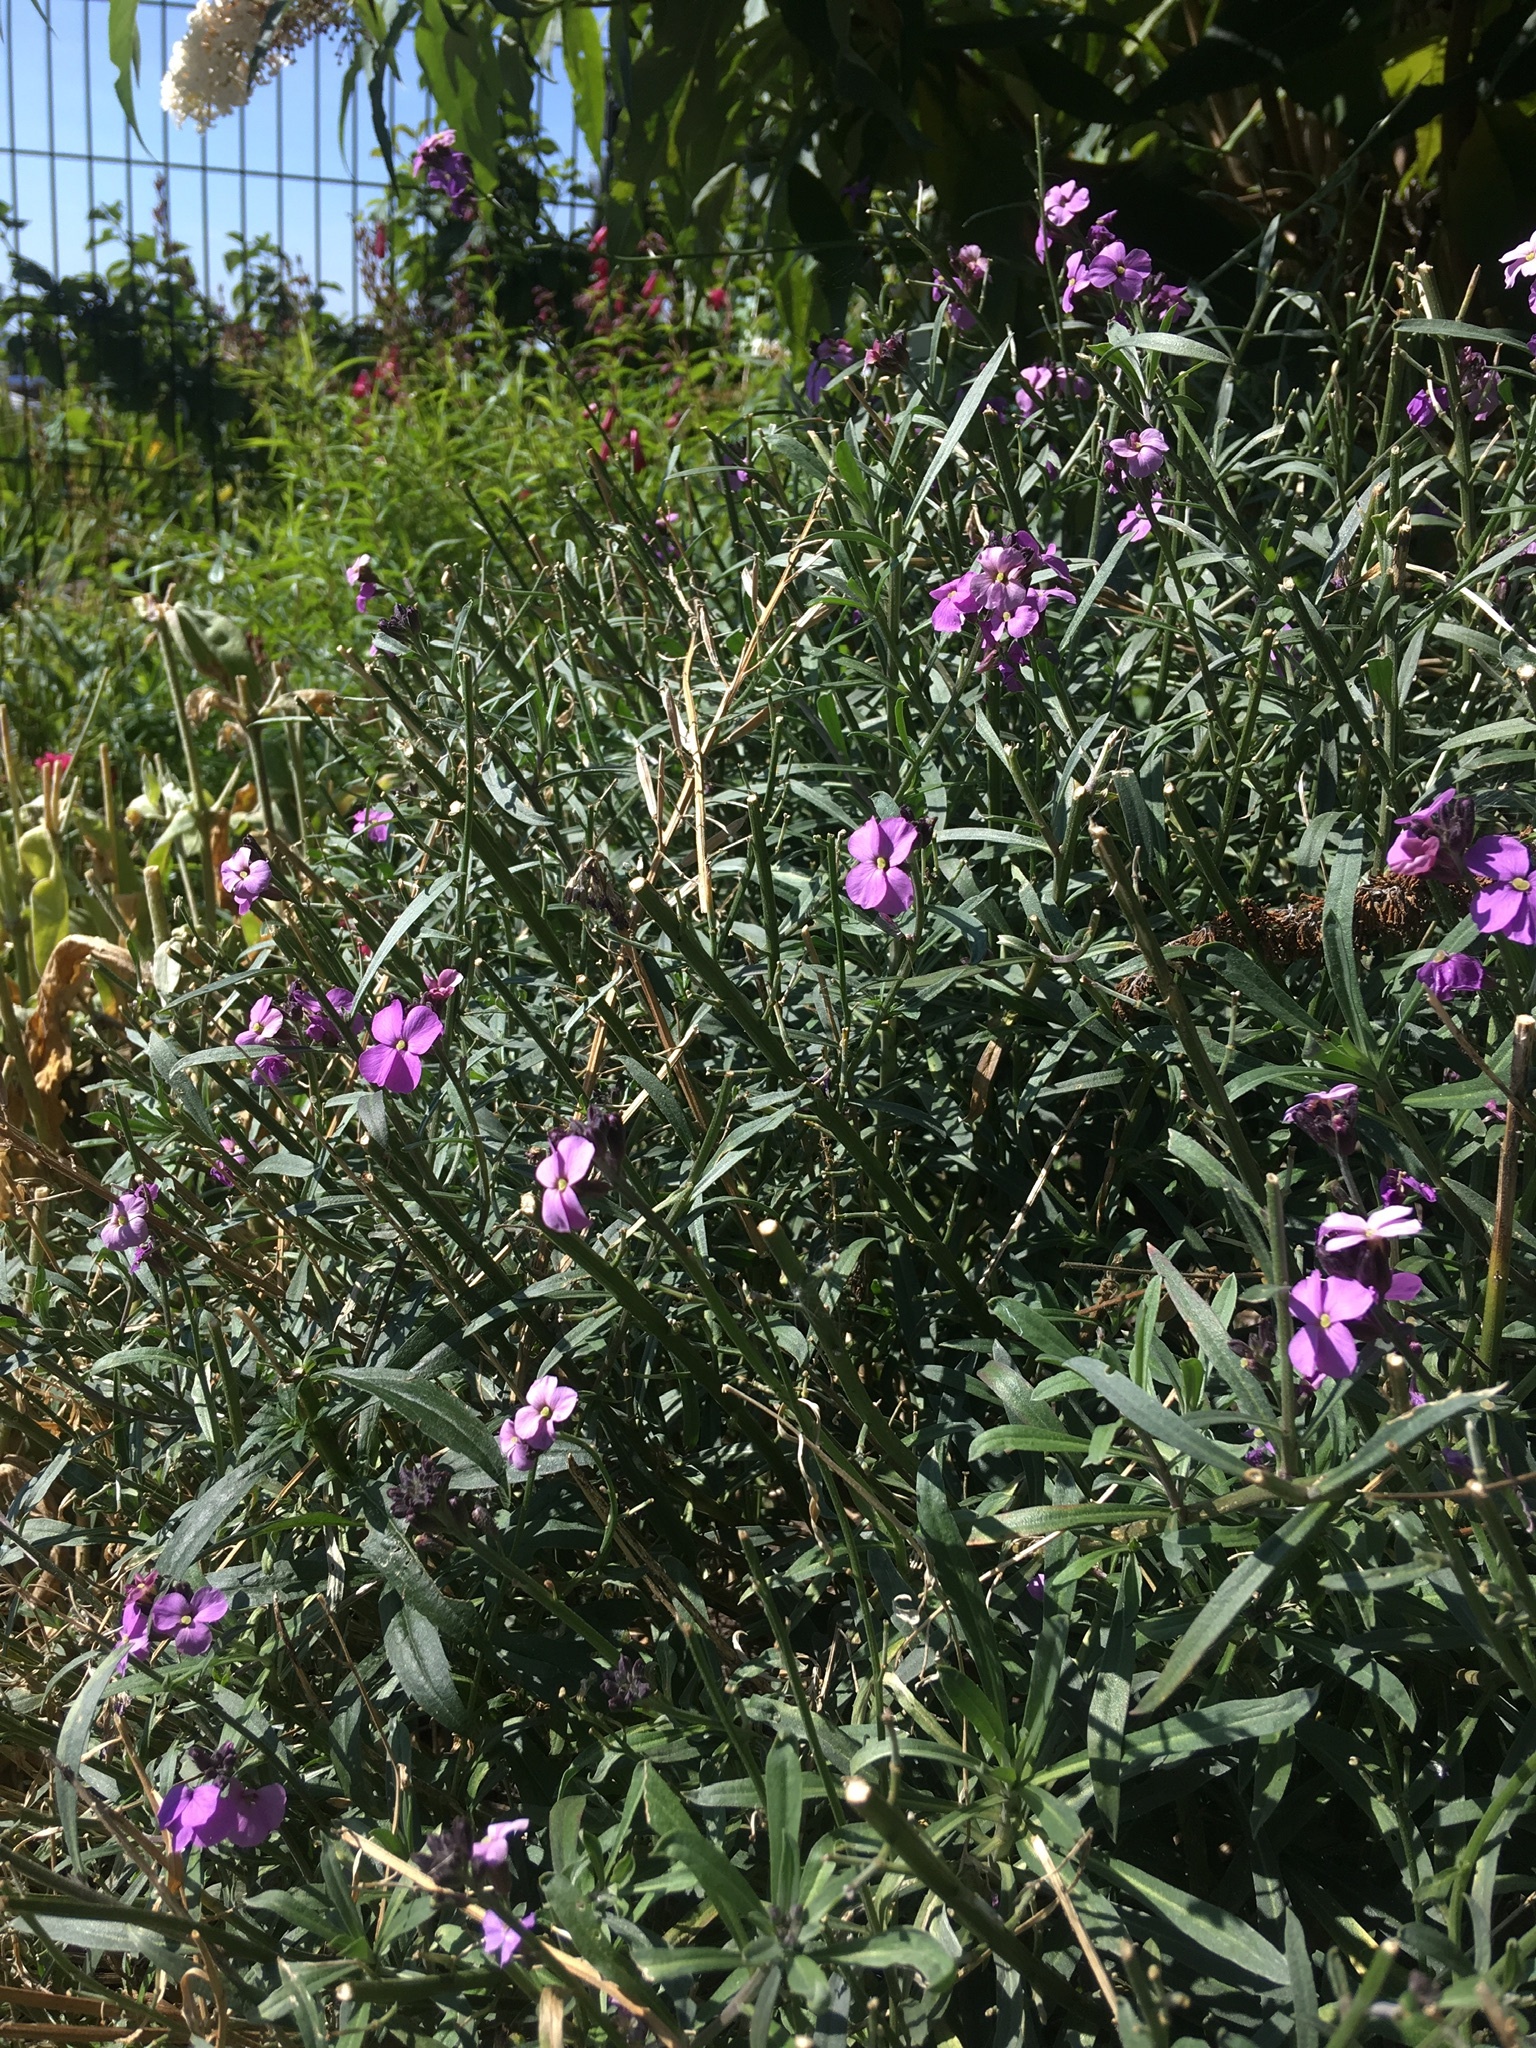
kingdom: Plantae
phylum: Tracheophyta
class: Magnoliopsida
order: Brassicales
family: Brassicaceae
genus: Erysimum
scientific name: Erysimum linifolium
